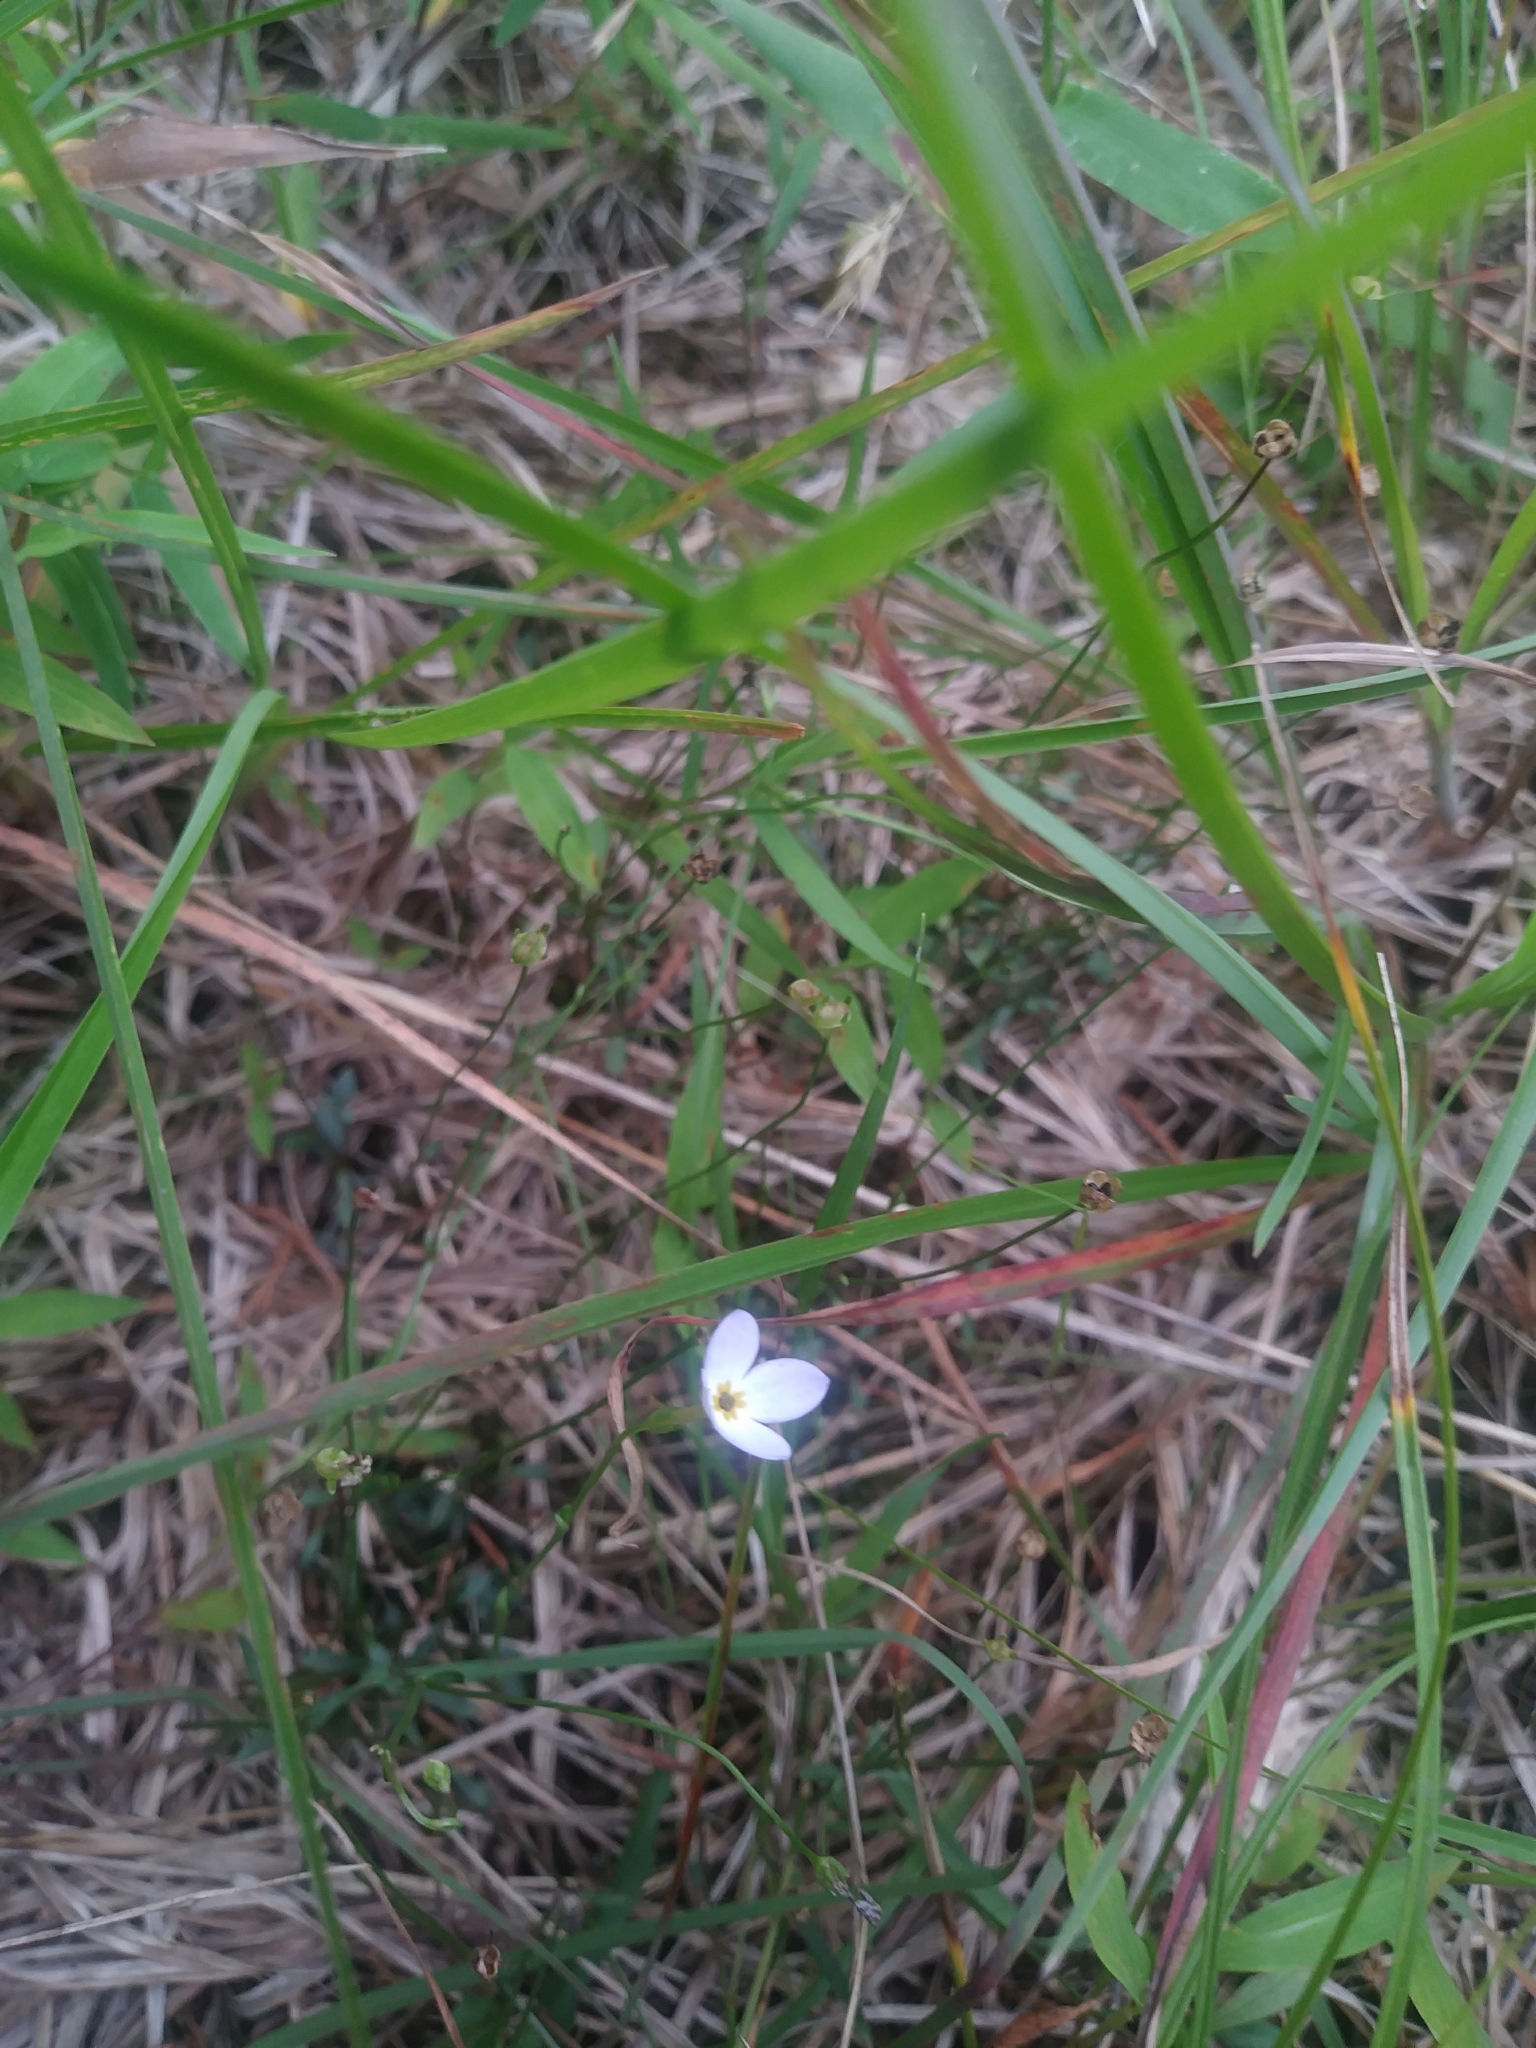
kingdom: Plantae
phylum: Tracheophyta
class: Magnoliopsida
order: Gentianales
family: Rubiaceae
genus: Houstonia
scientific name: Houstonia caerulea
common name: Bluets
